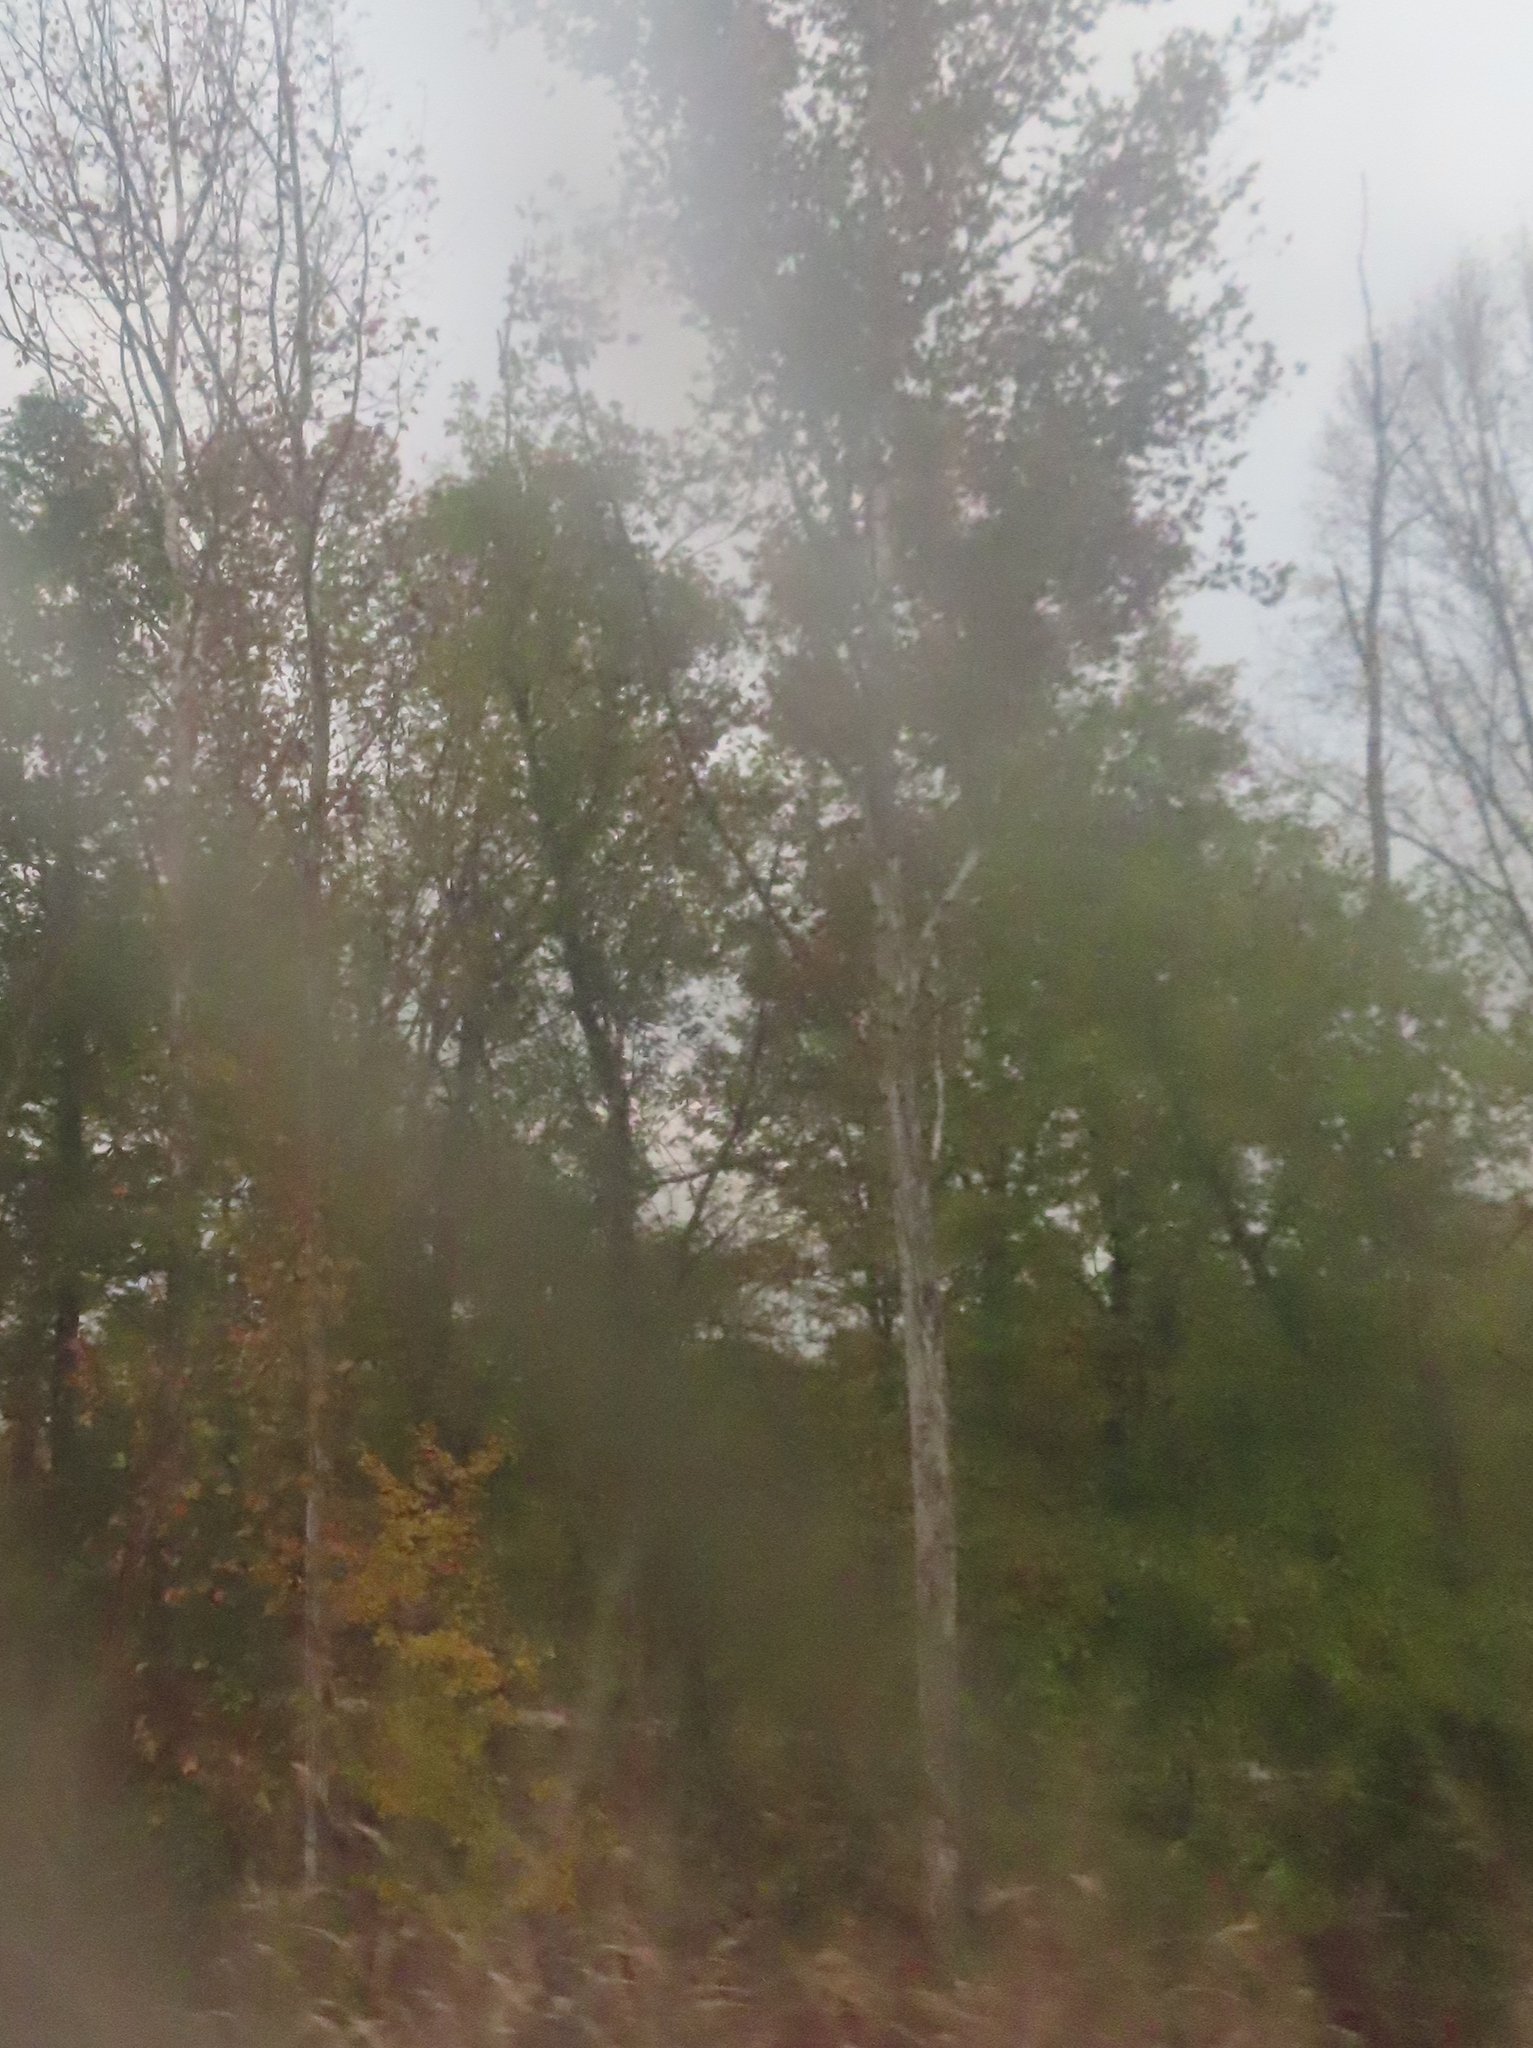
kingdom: Plantae
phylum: Tracheophyta
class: Magnoliopsida
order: Proteales
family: Platanaceae
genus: Platanus
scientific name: Platanus occidentalis
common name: American sycamore
